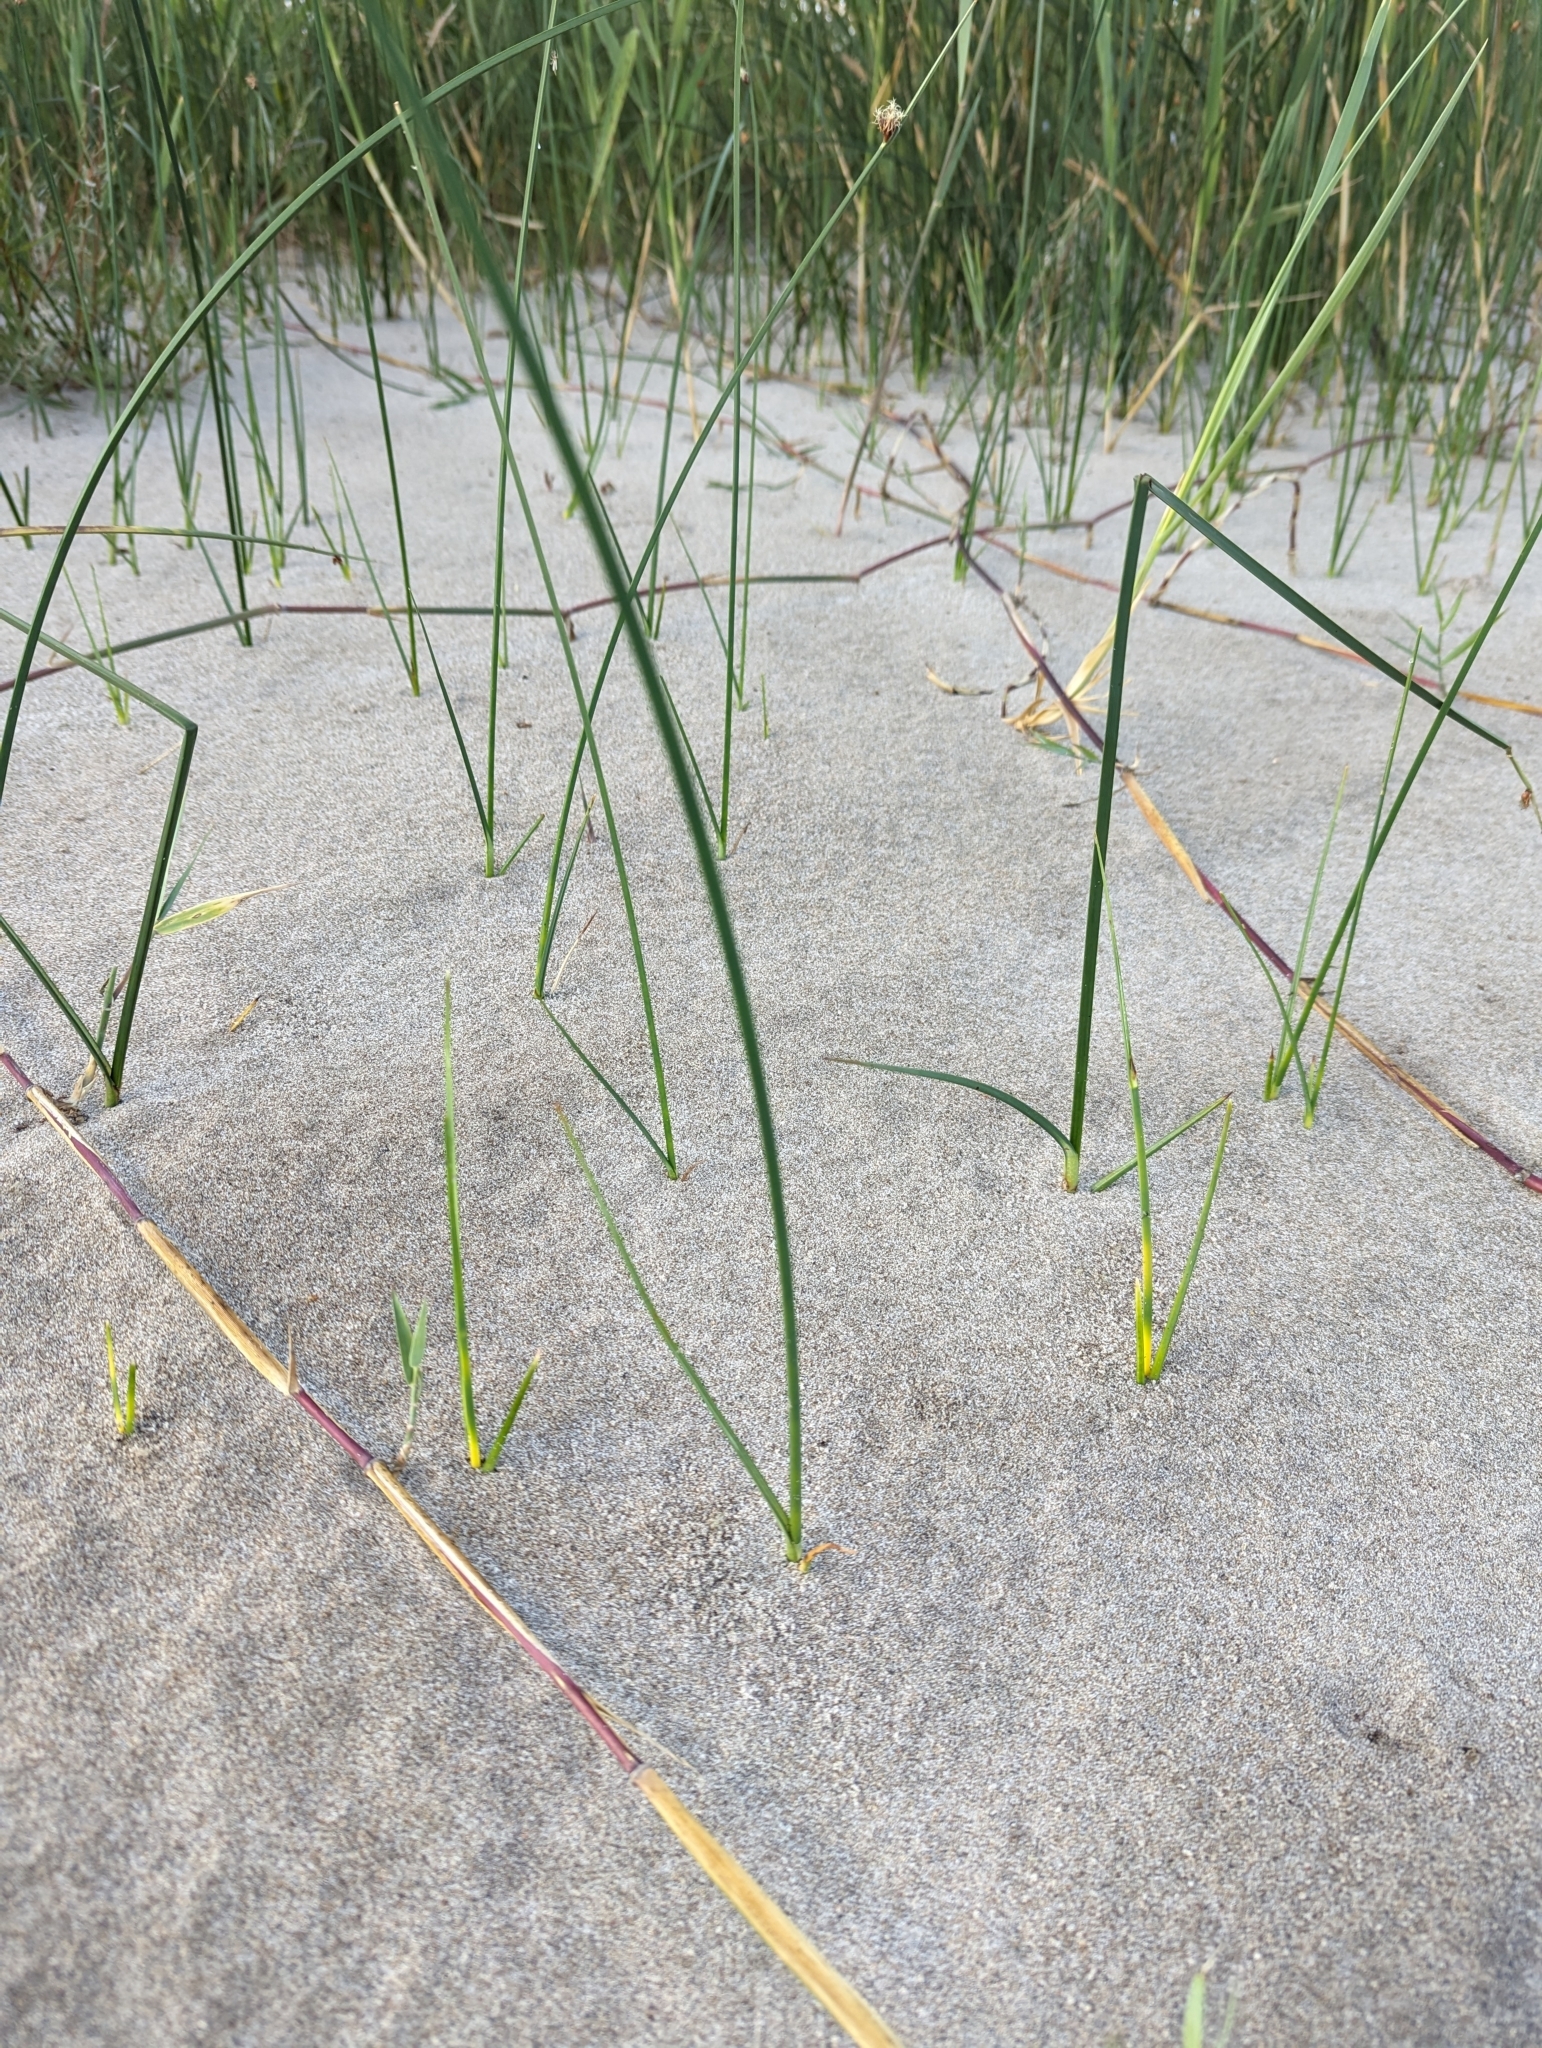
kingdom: Plantae
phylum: Tracheophyta
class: Liliopsida
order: Poales
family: Cyperaceae
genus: Schoenoplectus
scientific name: Schoenoplectus pungens
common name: Sharp club-rush
